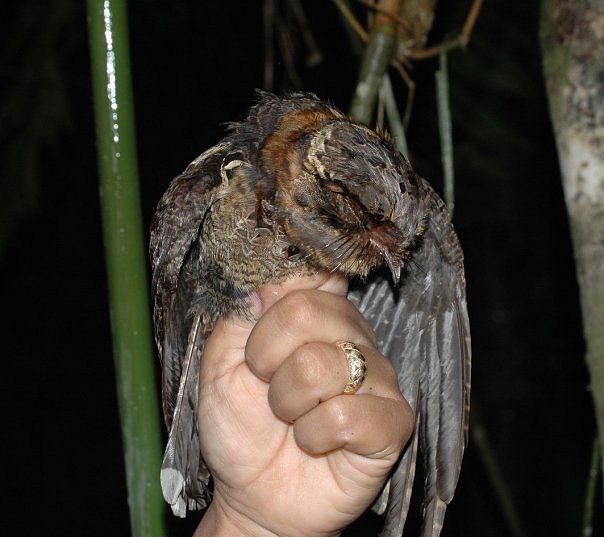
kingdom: Animalia
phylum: Chordata
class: Aves
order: Caprimulgiformes
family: Caprimulgidae
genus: Gactornis
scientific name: Gactornis enarratus
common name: Collared nightjar
